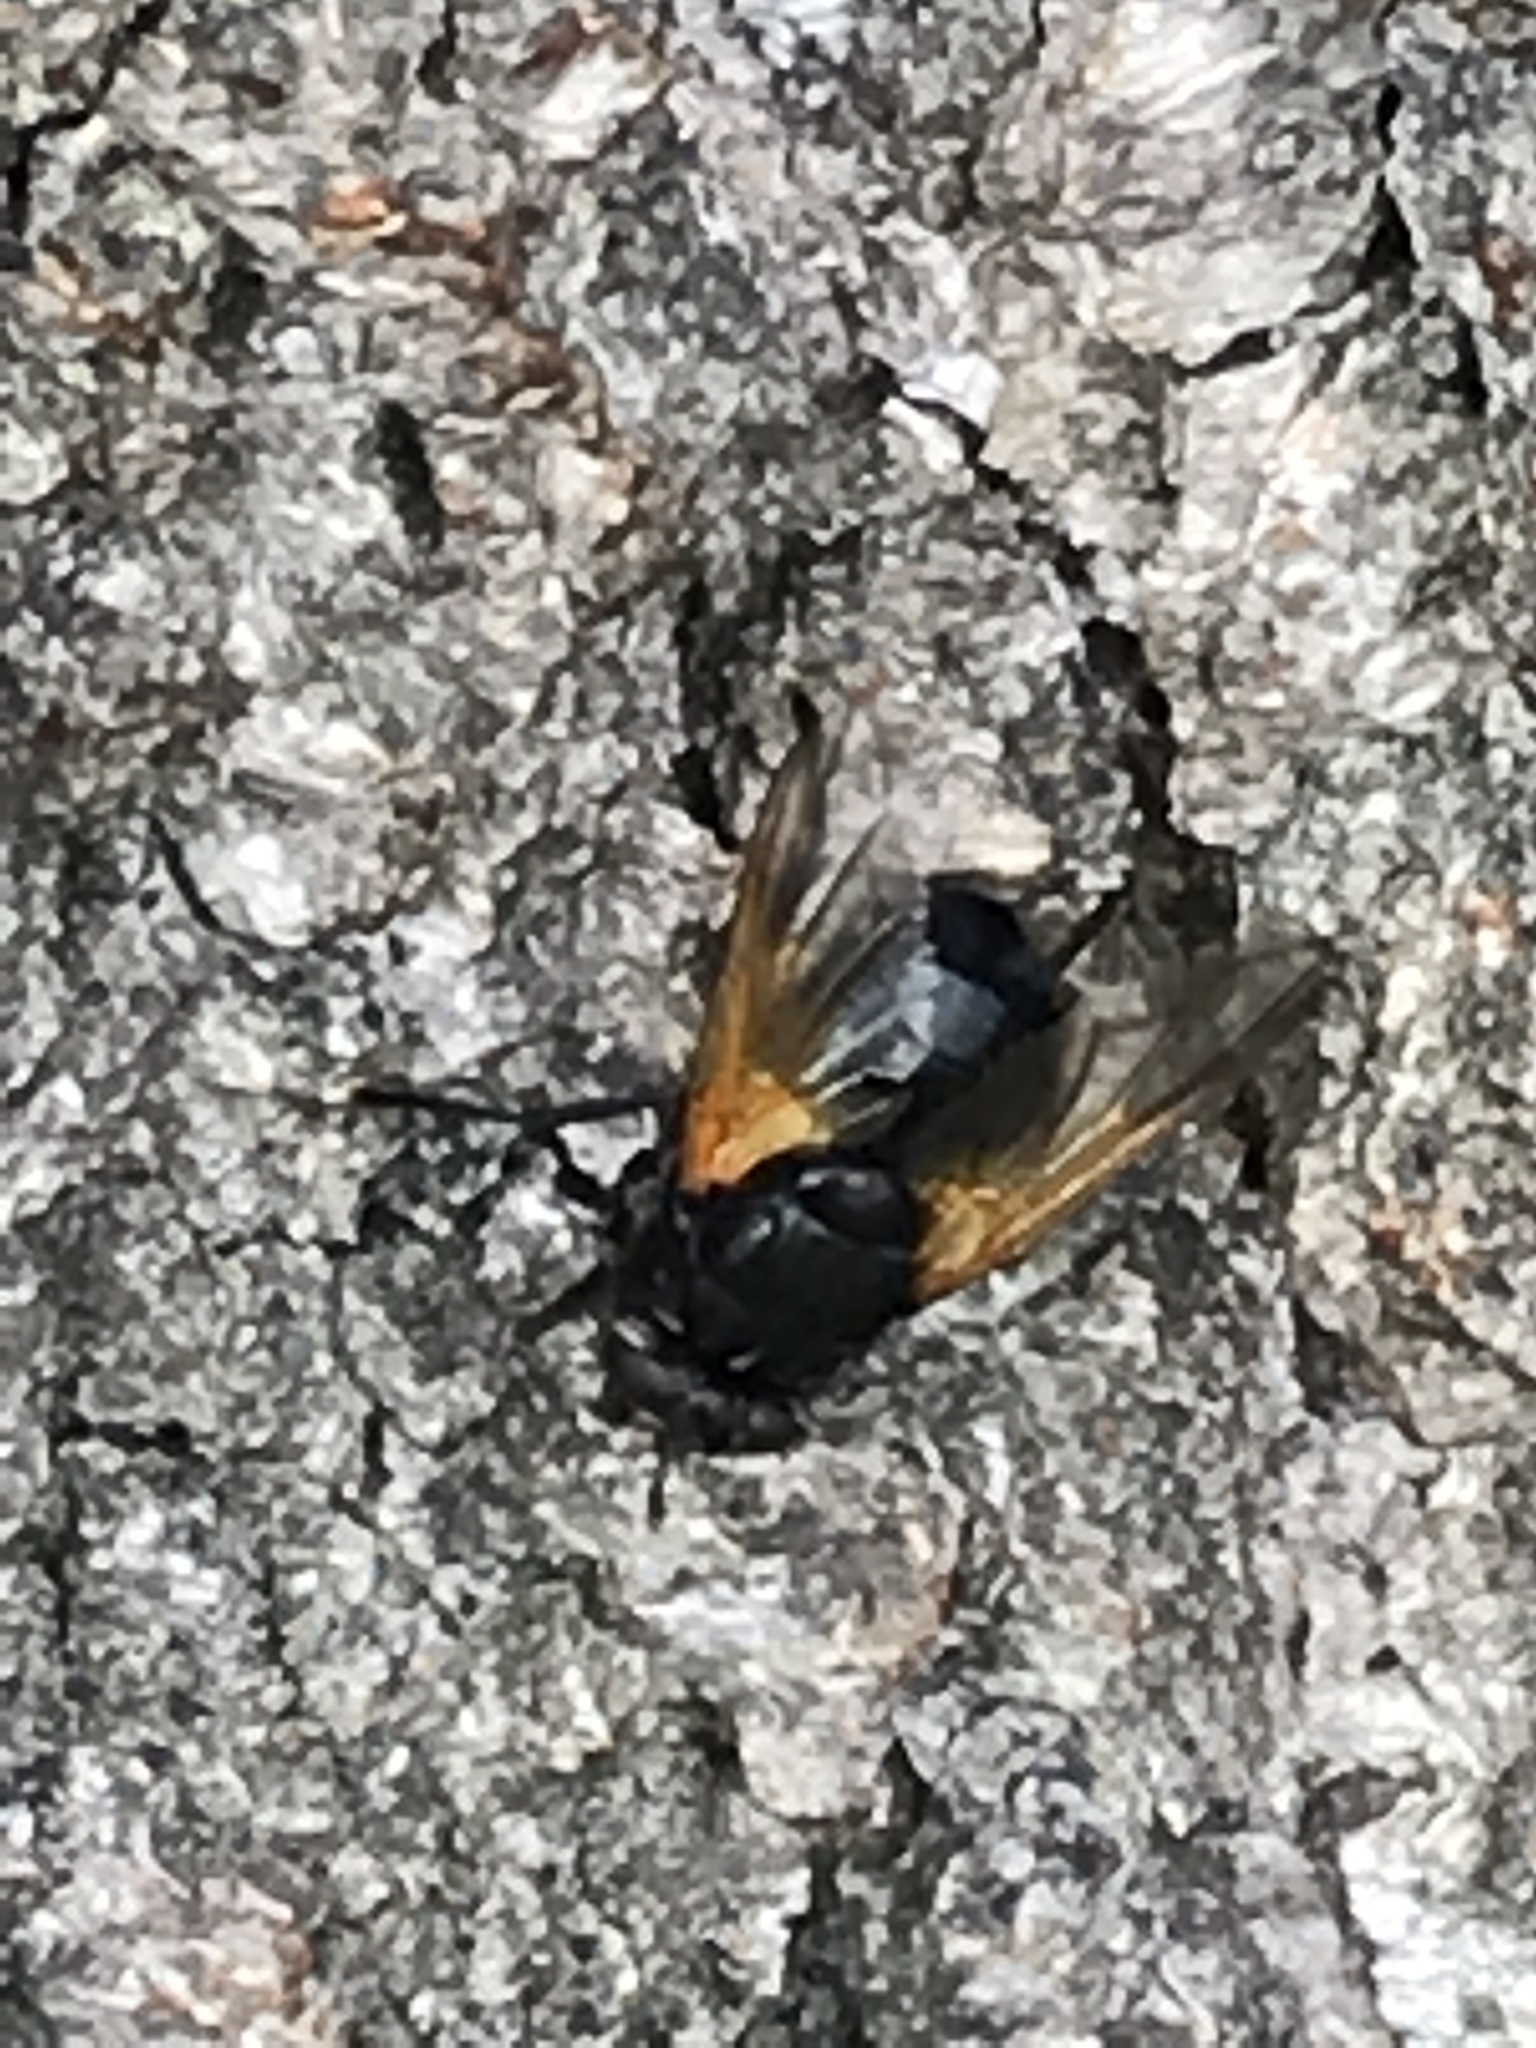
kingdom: Animalia
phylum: Arthropoda
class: Insecta
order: Diptera
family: Muscidae
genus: Mesembrina
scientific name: Mesembrina meridiana
